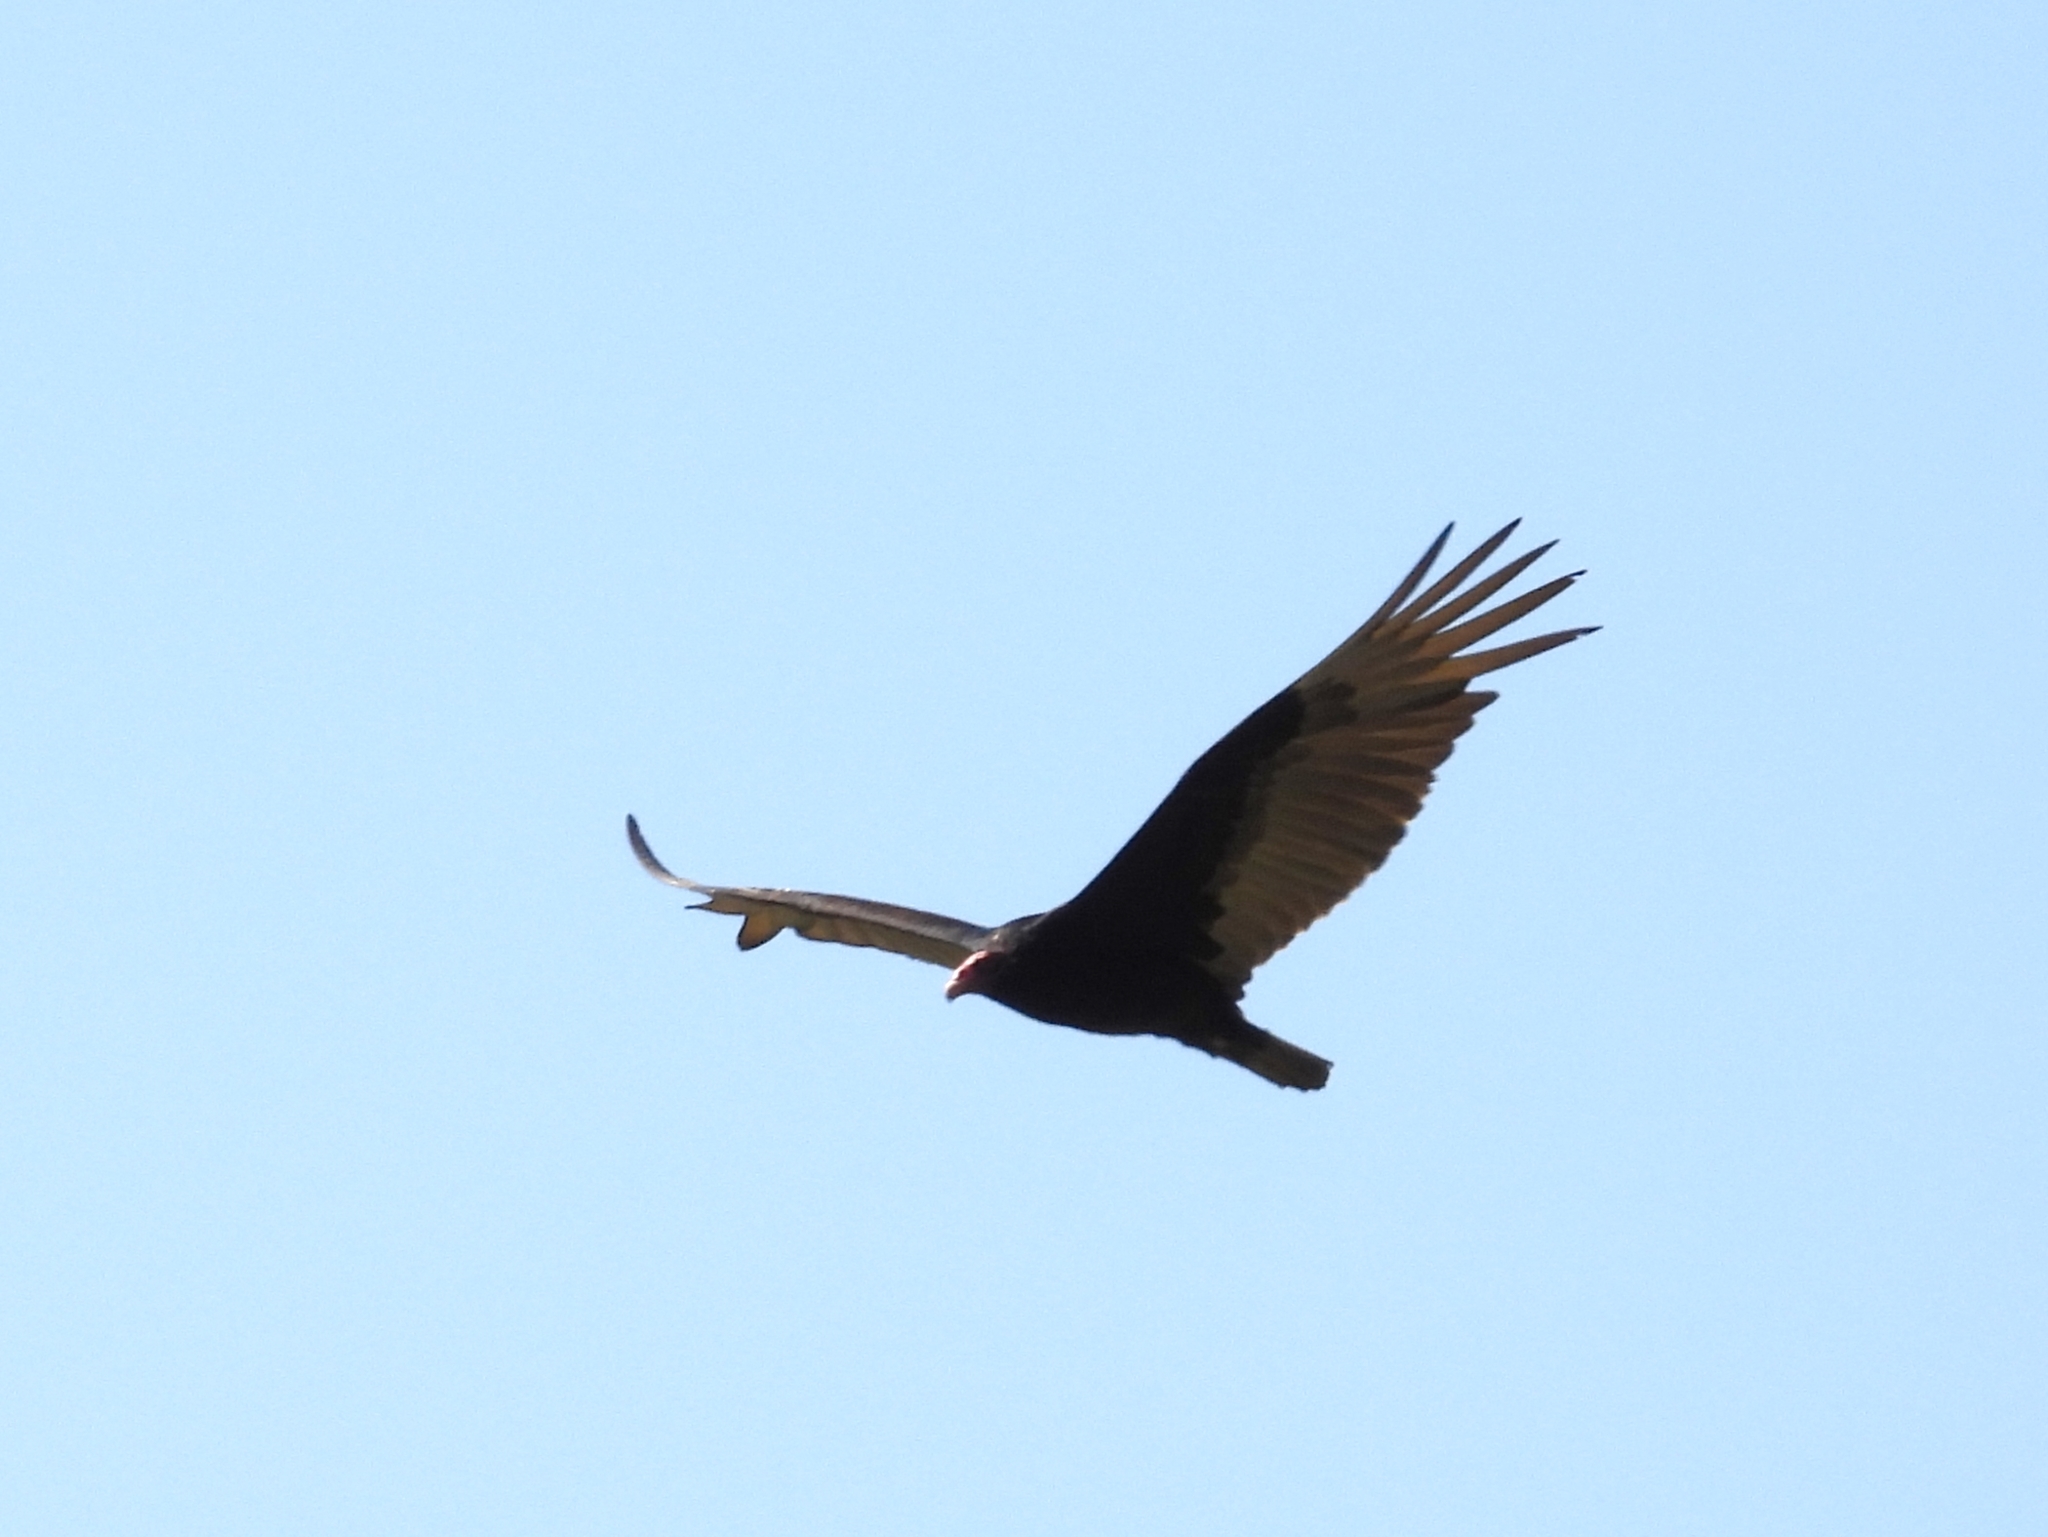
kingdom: Animalia
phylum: Chordata
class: Aves
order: Accipitriformes
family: Cathartidae
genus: Cathartes
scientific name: Cathartes aura
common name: Turkey vulture
